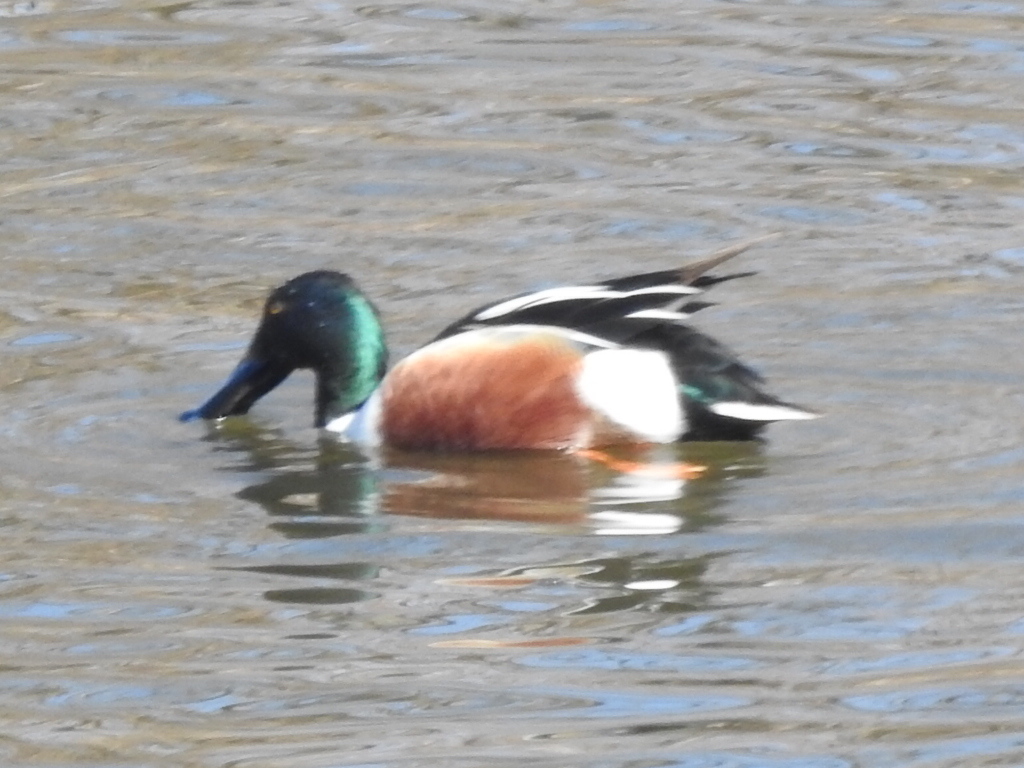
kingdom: Animalia
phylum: Chordata
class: Aves
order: Anseriformes
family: Anatidae
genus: Spatula
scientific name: Spatula clypeata
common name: Northern shoveler
